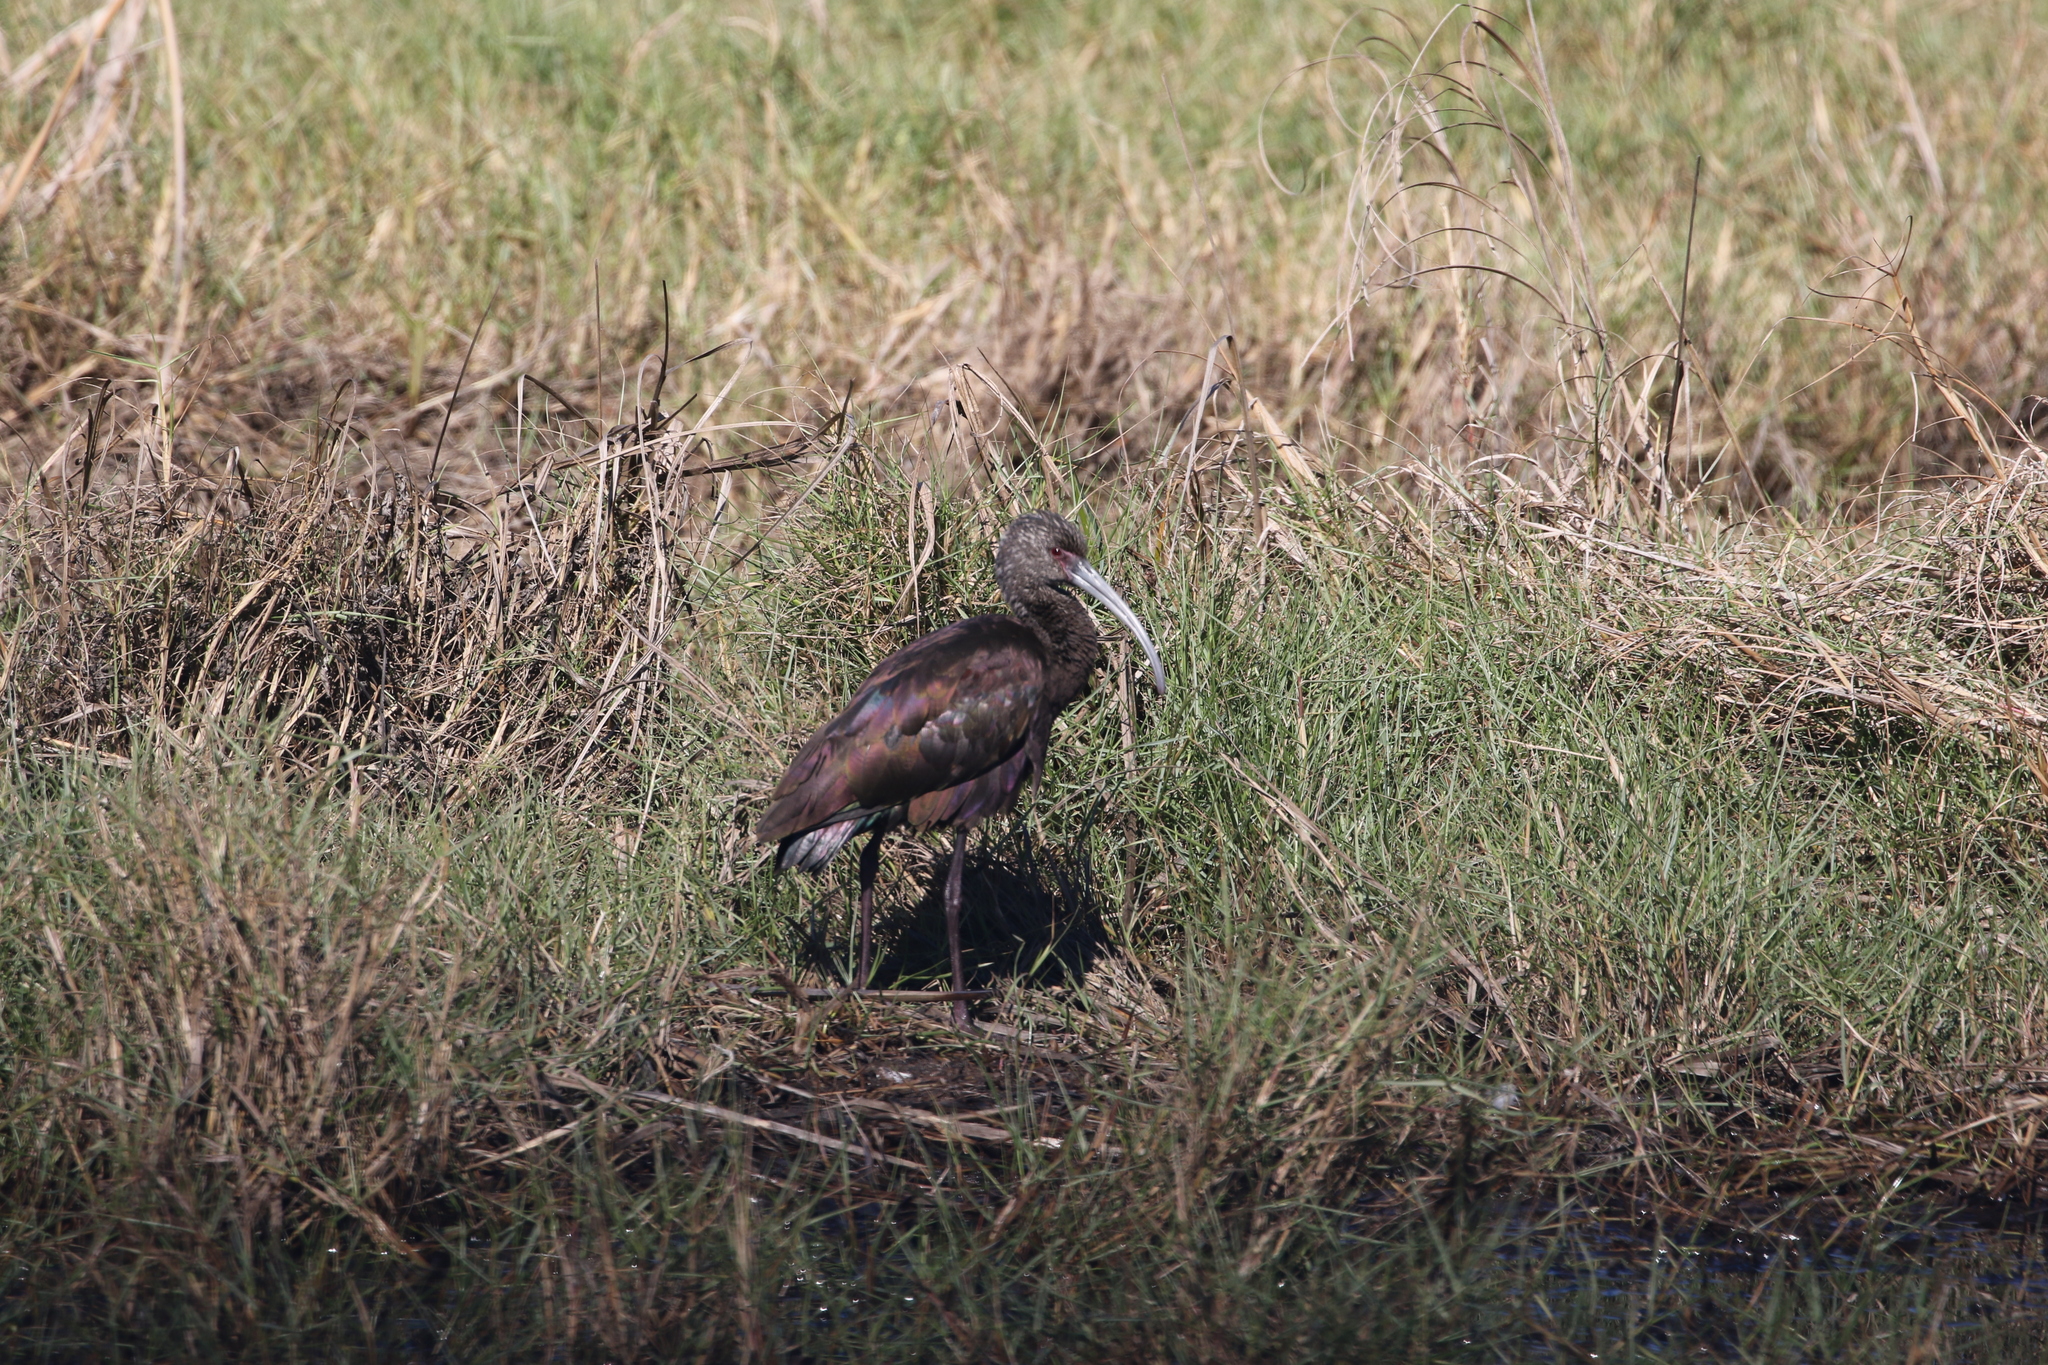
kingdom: Animalia
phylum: Chordata
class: Aves
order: Pelecaniformes
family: Threskiornithidae
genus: Plegadis
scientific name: Plegadis chihi
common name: White-faced ibis
